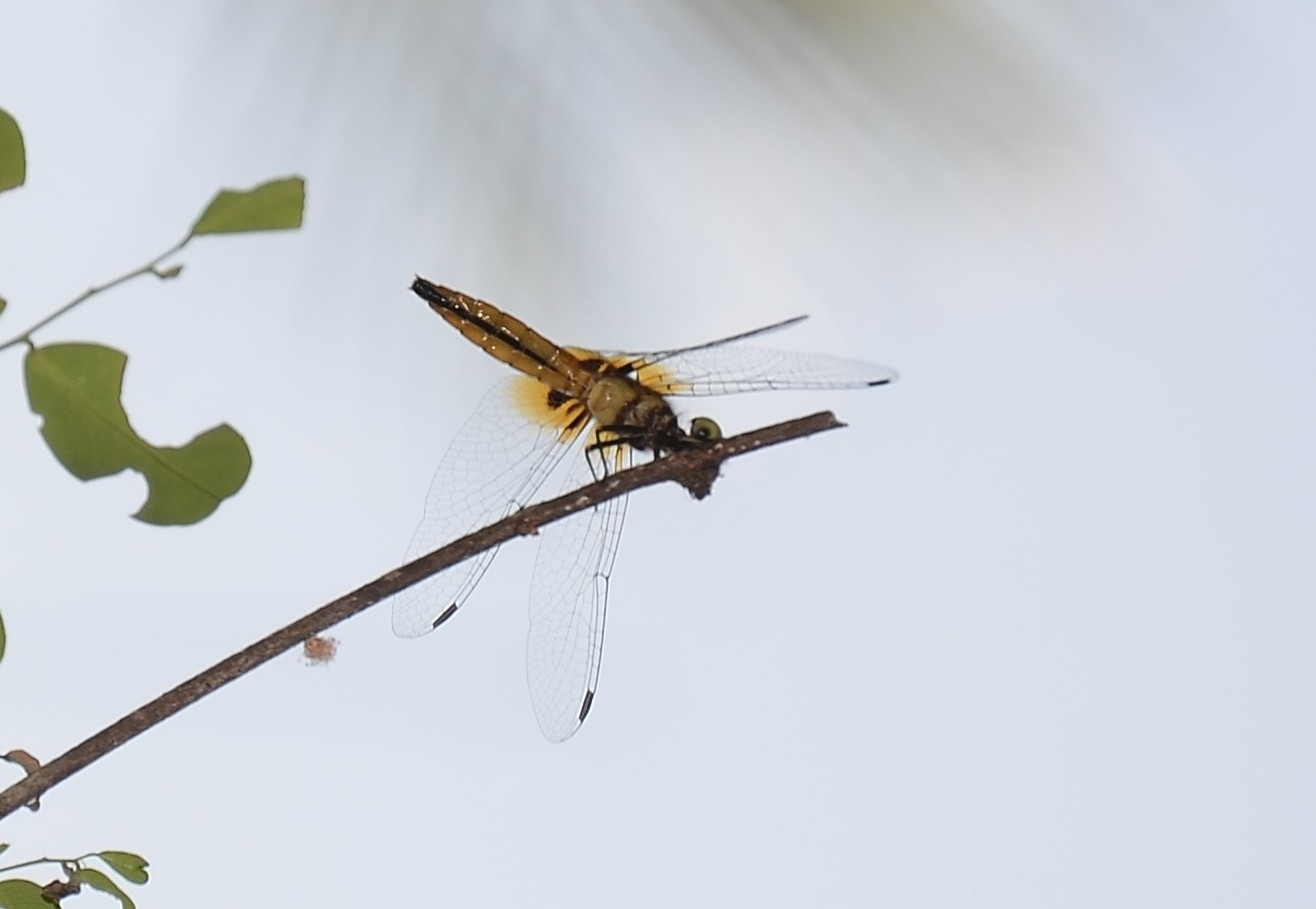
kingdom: Animalia
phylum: Arthropoda
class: Insecta
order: Odonata
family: Libellulidae
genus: Aethriamanta
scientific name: Aethriamanta brevipennis
